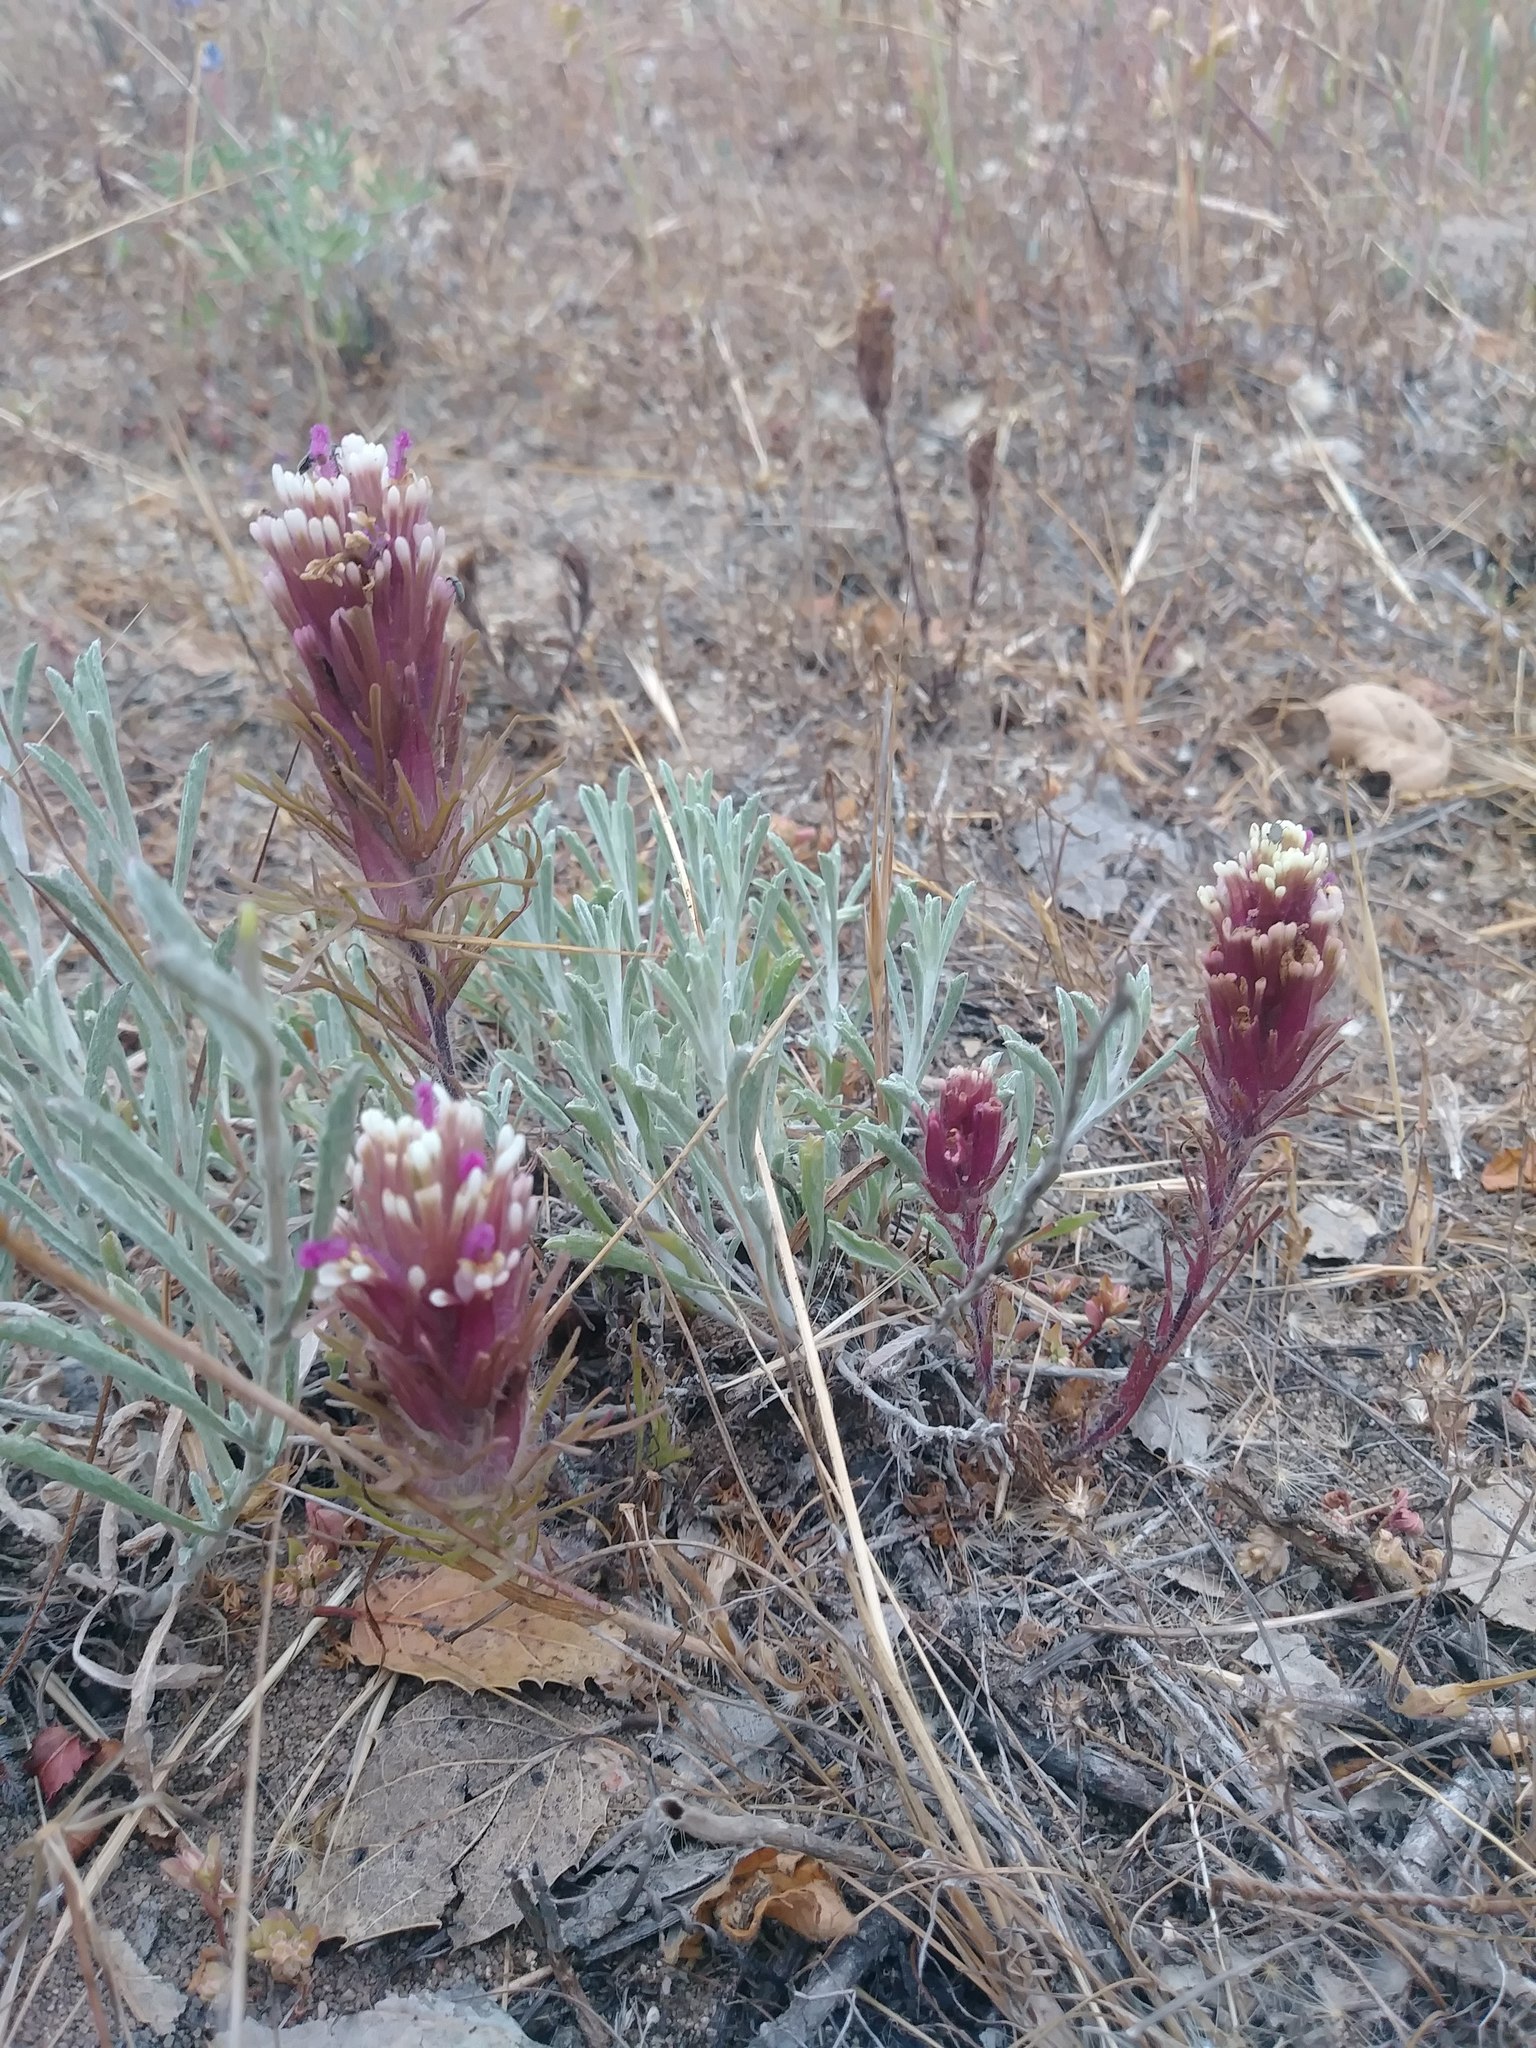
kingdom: Plantae
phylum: Tracheophyta
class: Magnoliopsida
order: Lamiales
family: Orobanchaceae
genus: Castilleja
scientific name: Castilleja exserta
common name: Purple owl-clover
